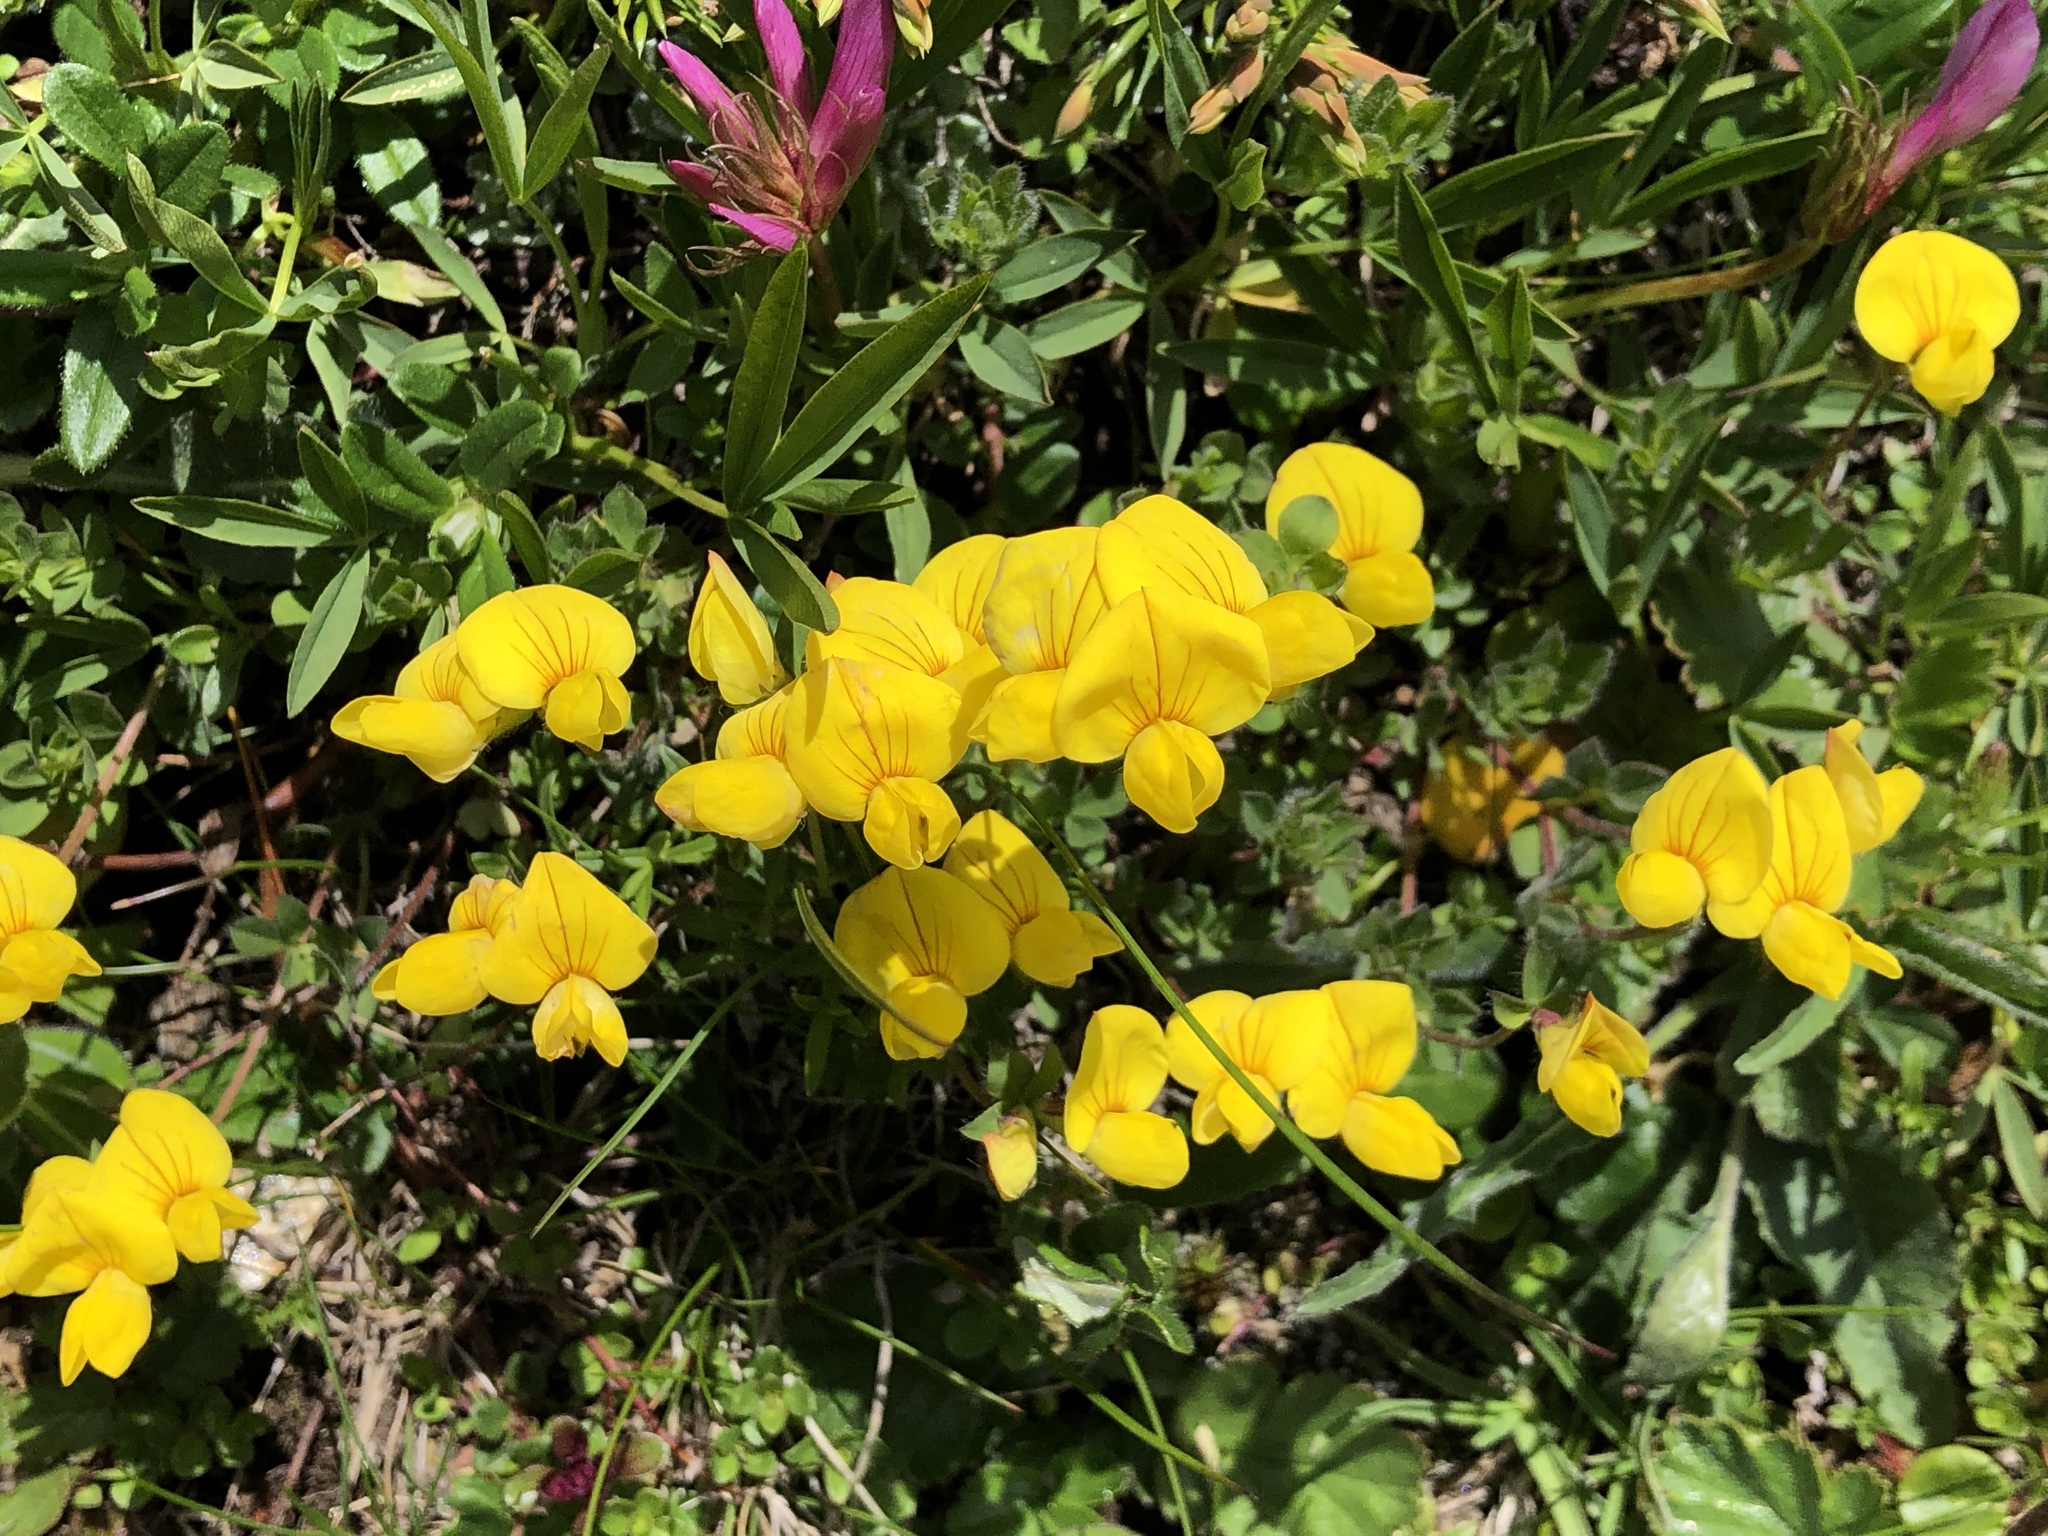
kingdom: Plantae
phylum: Tracheophyta
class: Magnoliopsida
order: Fabales
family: Fabaceae
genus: Lotus
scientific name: Lotus corniculatus
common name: Common bird's-foot-trefoil
